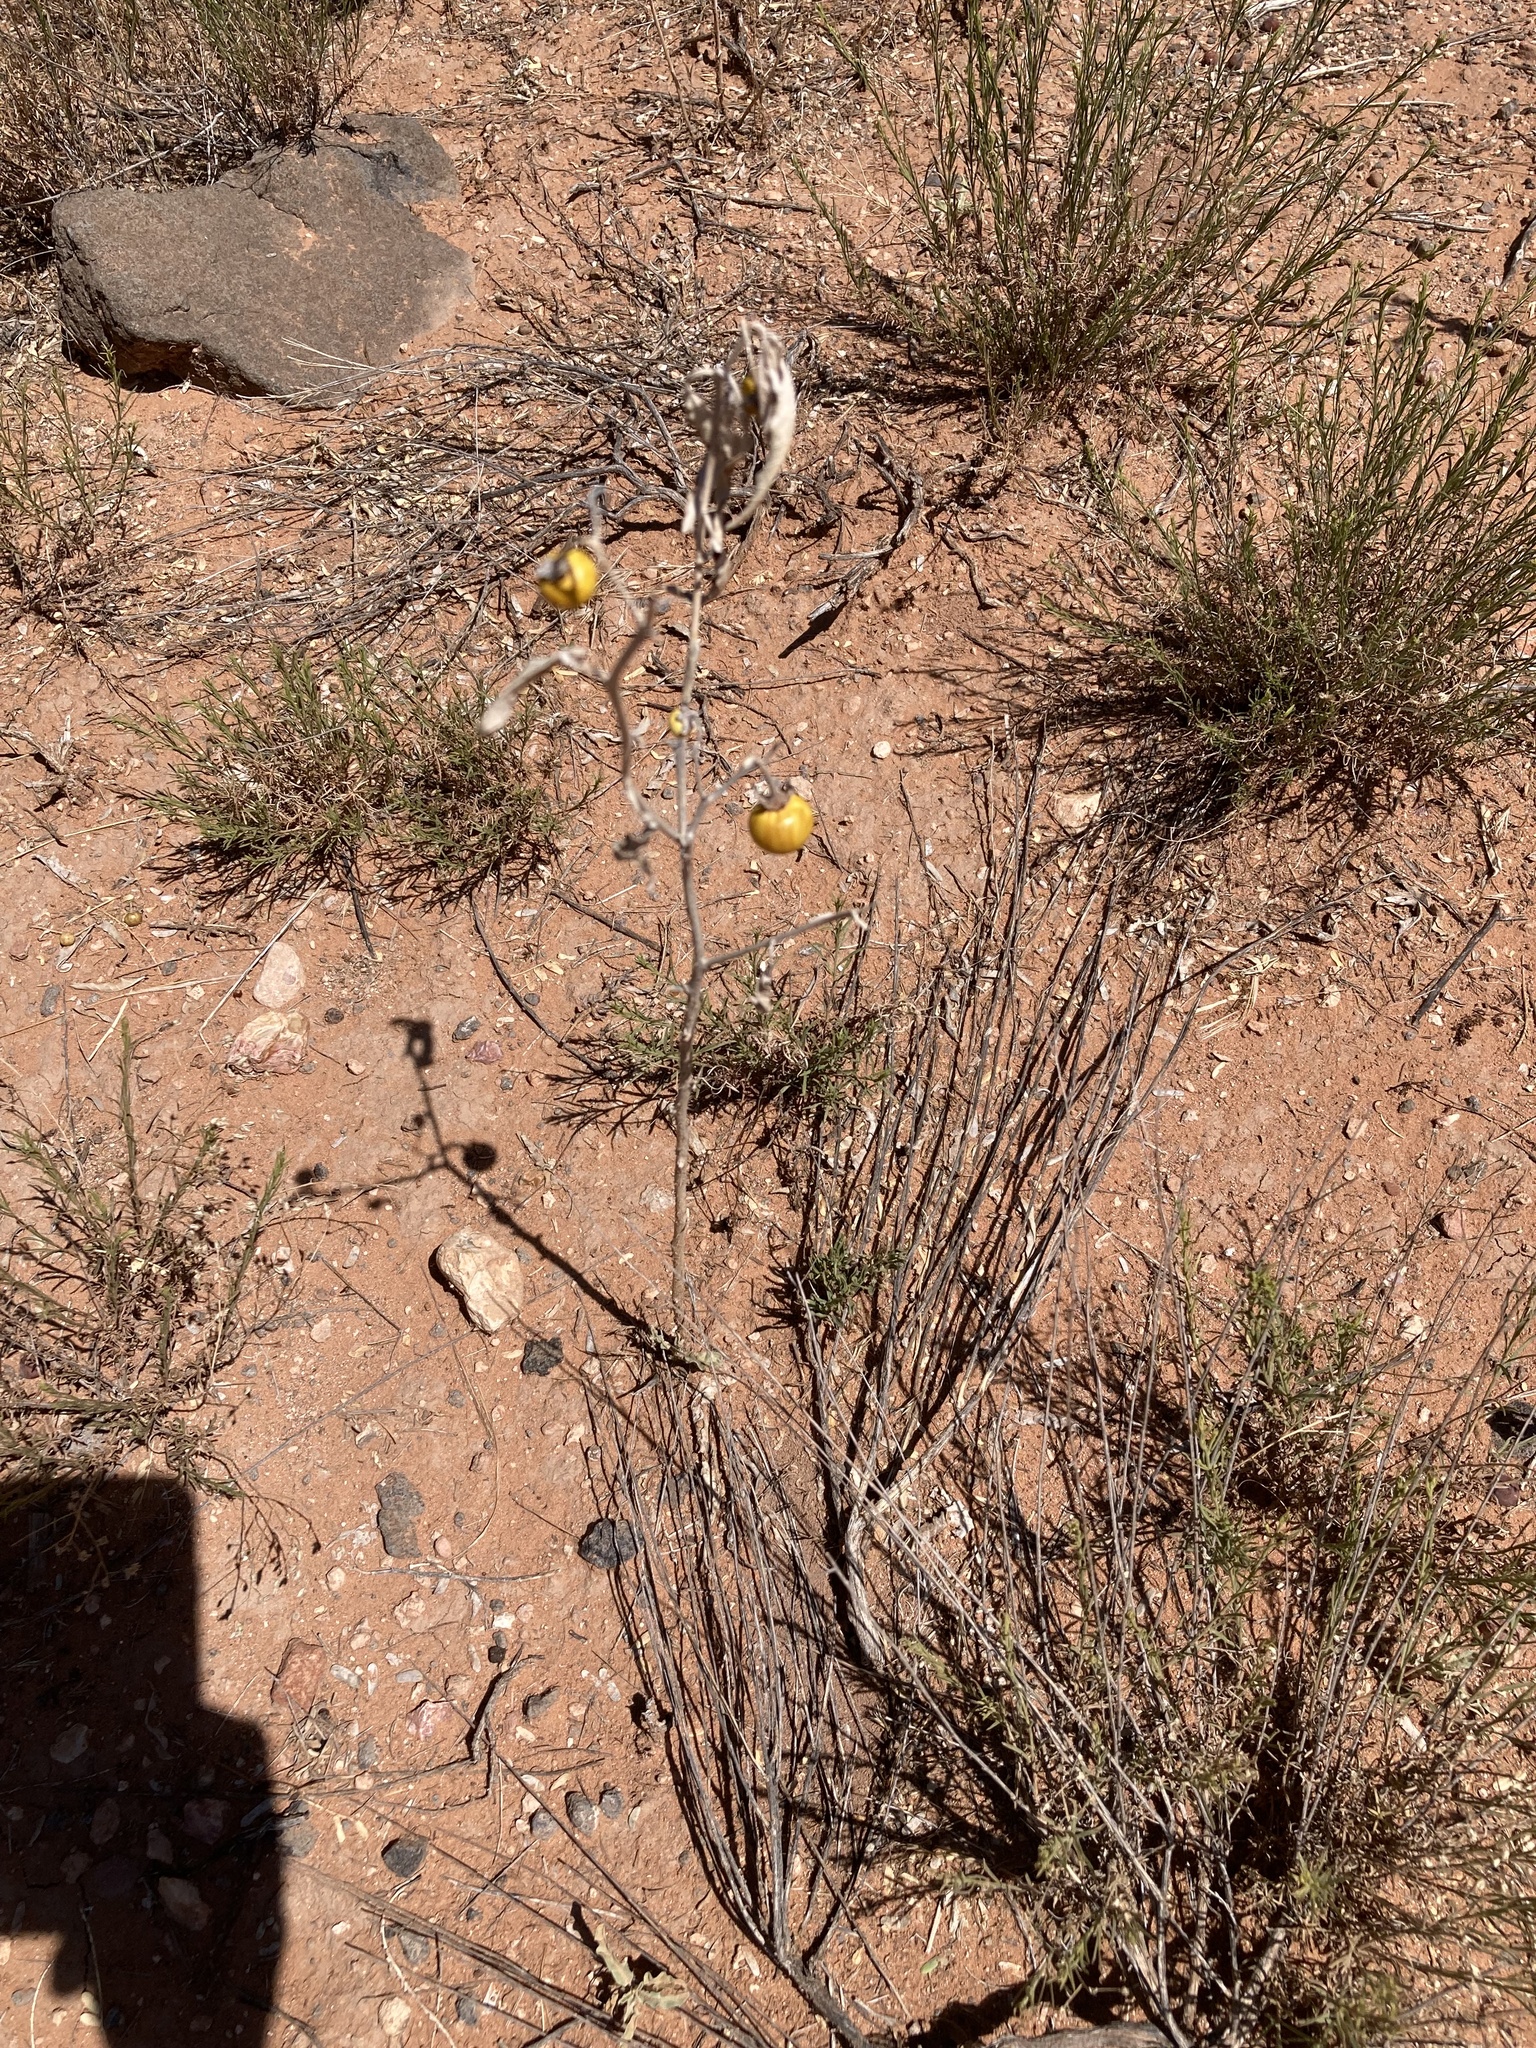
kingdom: Plantae
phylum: Tracheophyta
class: Magnoliopsida
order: Solanales
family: Solanaceae
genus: Solanum
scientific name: Solanum elaeagnifolium
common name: Silverleaf nightshade
